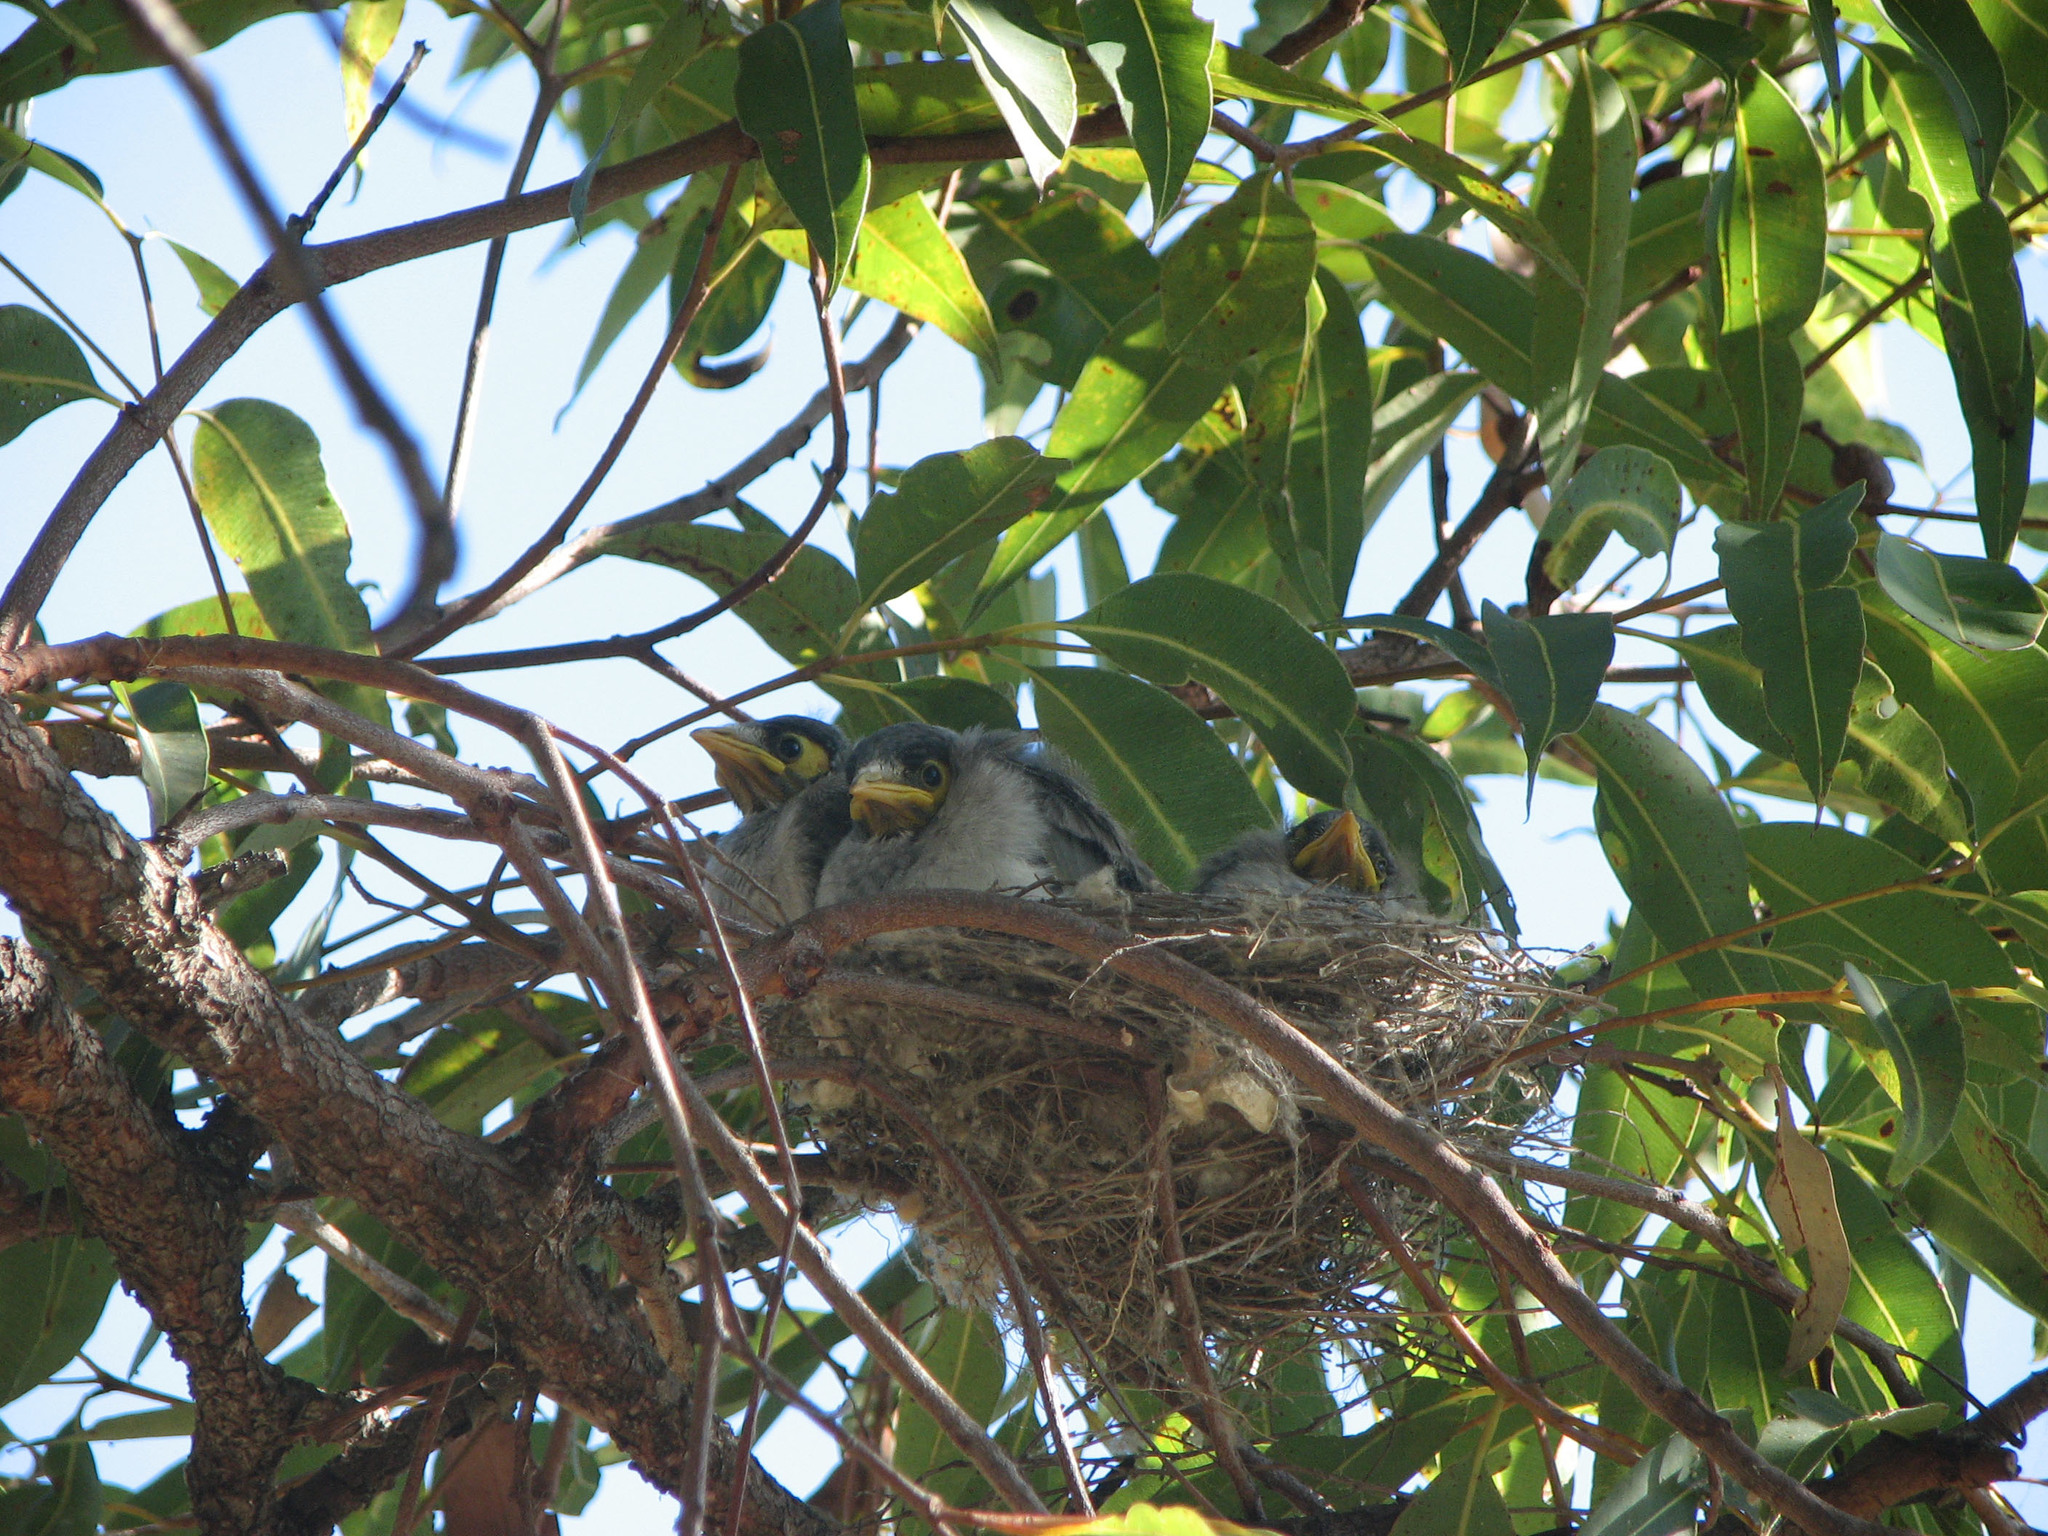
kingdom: Animalia
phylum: Chordata
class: Aves
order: Passeriformes
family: Meliphagidae
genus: Manorina
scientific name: Manorina melanocephala
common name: Noisy miner
